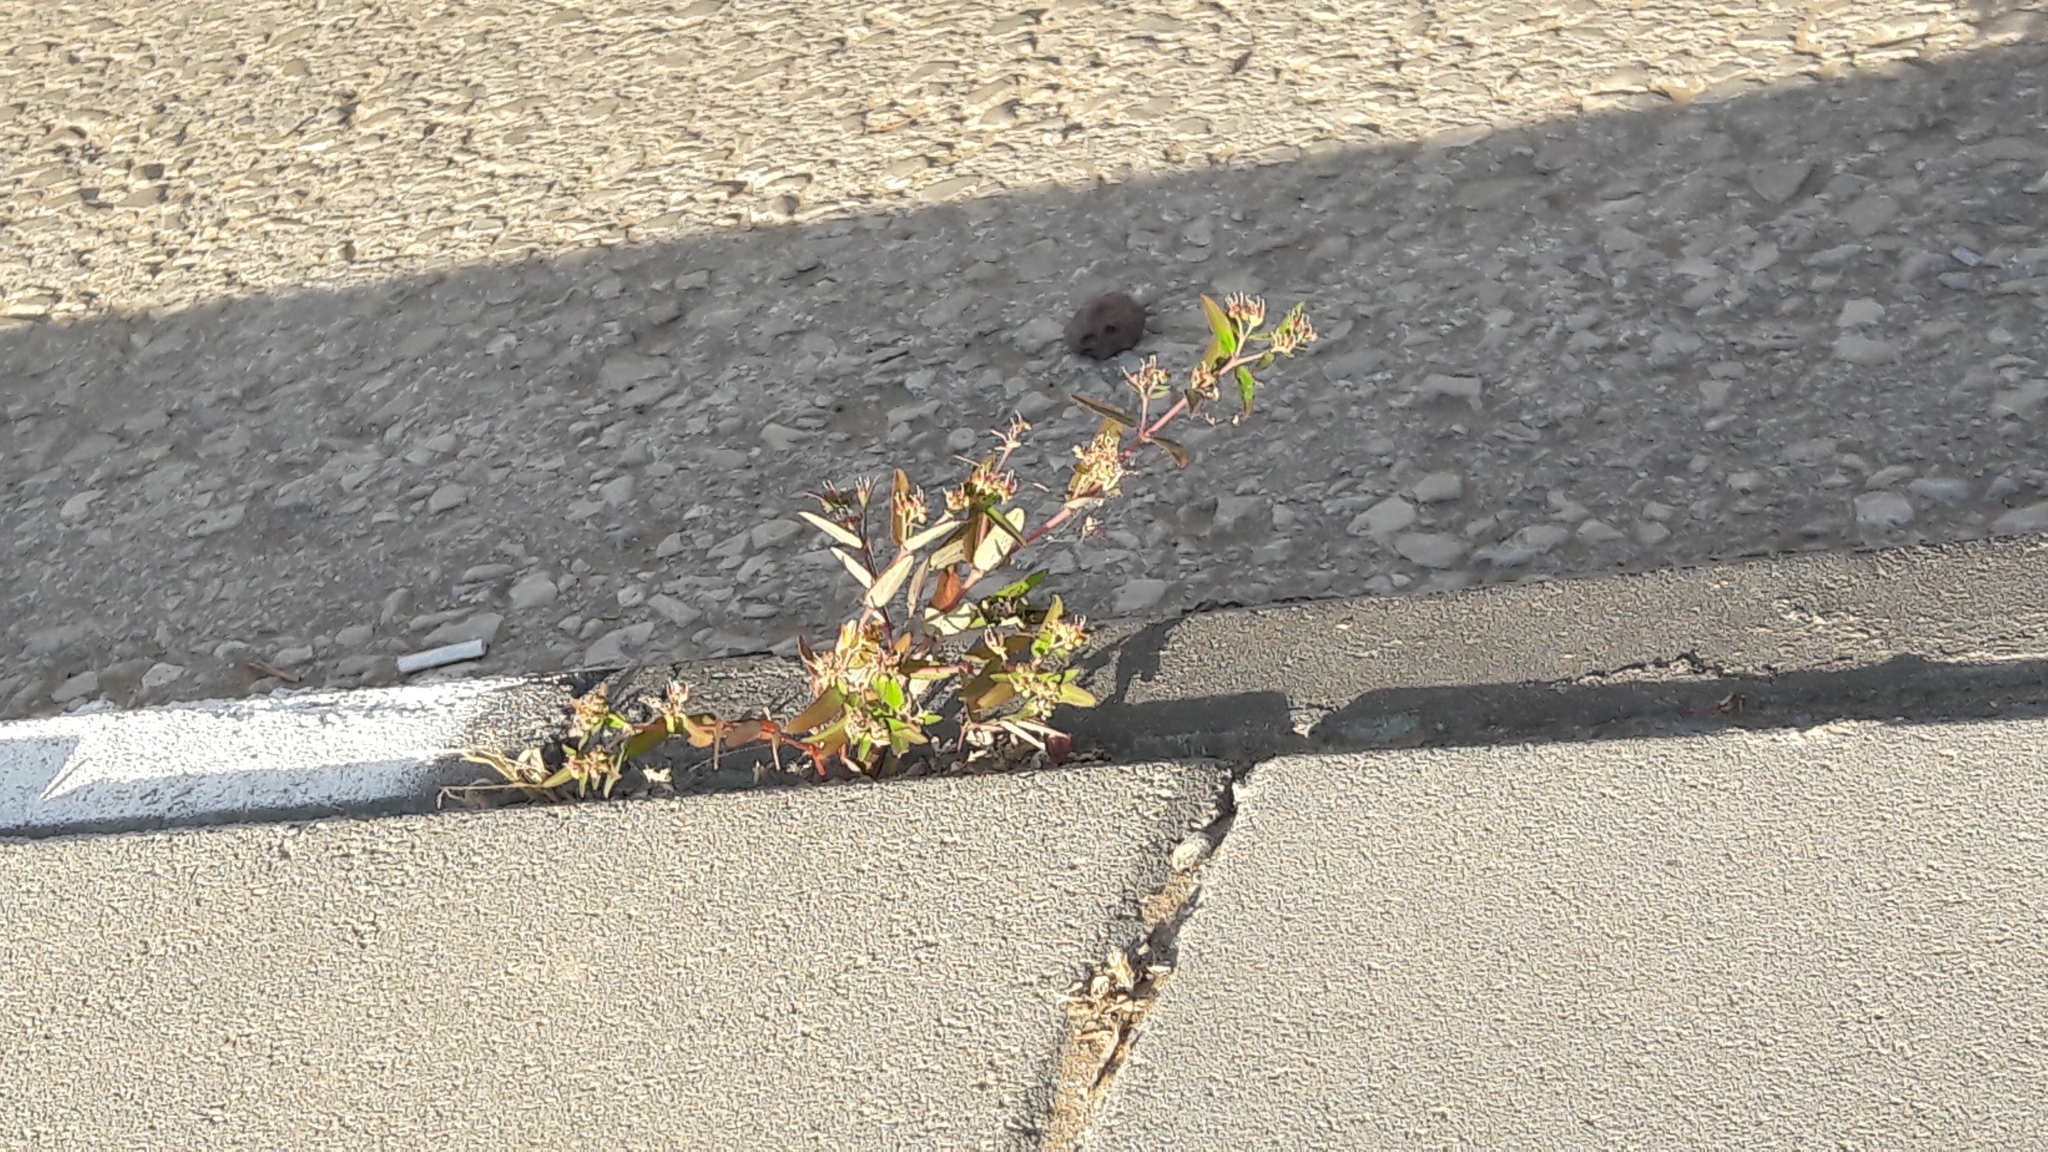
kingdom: Plantae
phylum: Tracheophyta
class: Magnoliopsida
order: Malpighiales
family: Euphorbiaceae
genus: Euphorbia
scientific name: Euphorbia hypericifolia
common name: Graceful sandmat
